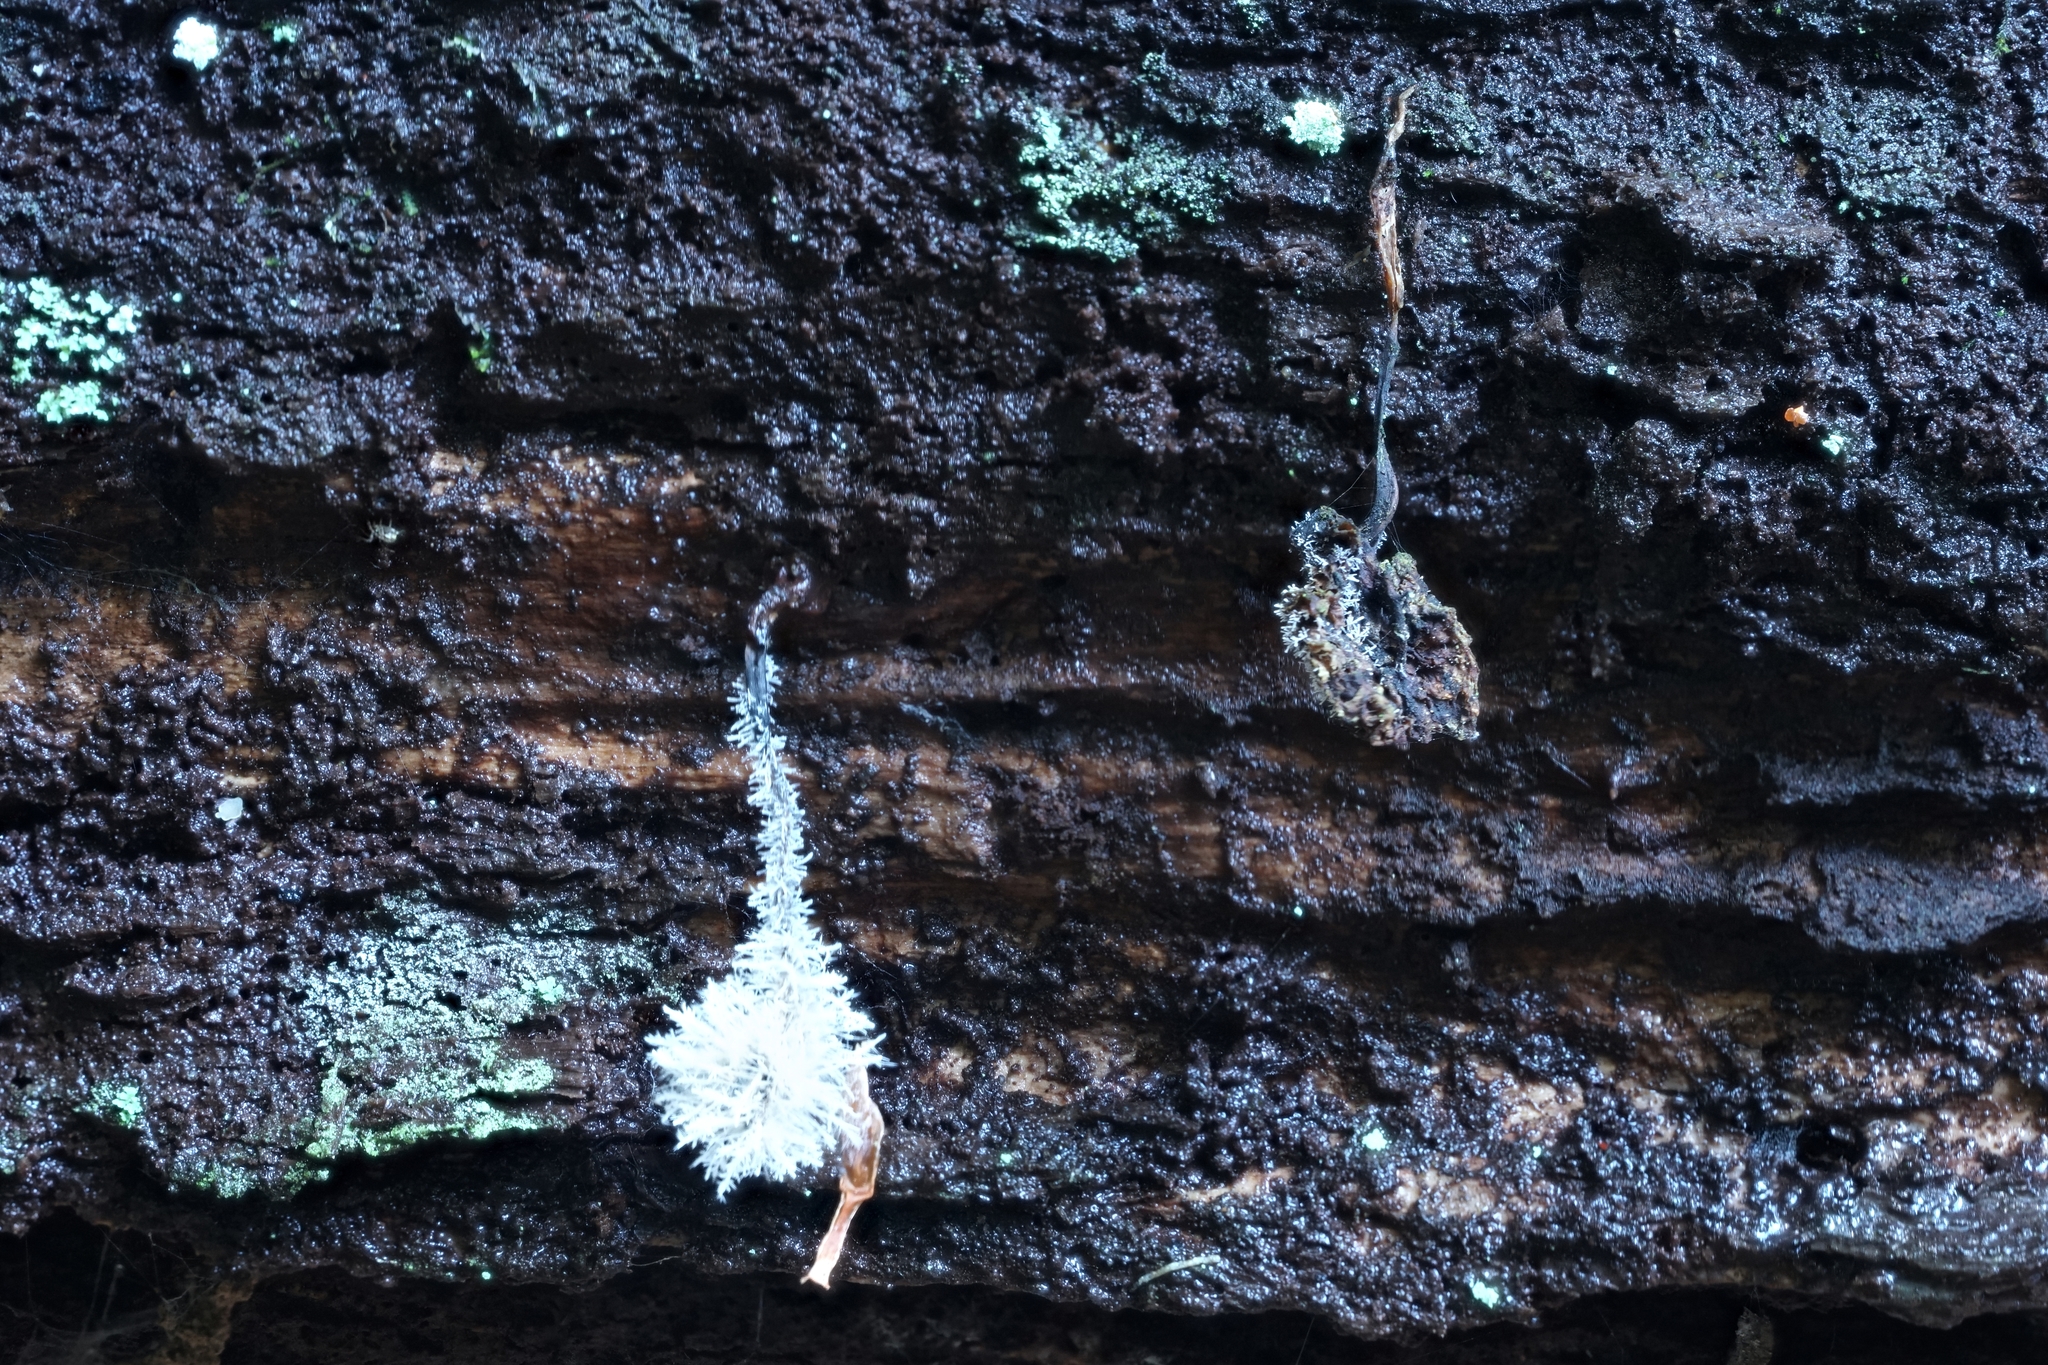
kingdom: Fungi
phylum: Ascomycota
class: Sordariomycetes
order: Hypocreales
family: Tilachlidiaceae
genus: Tilachlidium
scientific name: Tilachlidium brachiatum
